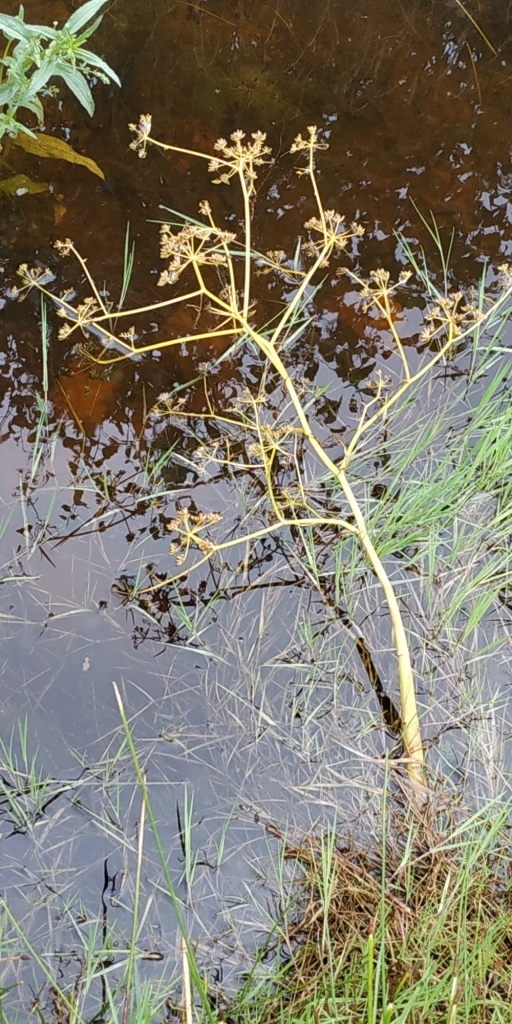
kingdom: Plantae
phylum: Tracheophyta
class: Magnoliopsida
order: Apiales
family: Apiaceae
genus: Oenanthe
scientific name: Oenanthe aquatica
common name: Fine-leaved water-dropwort
